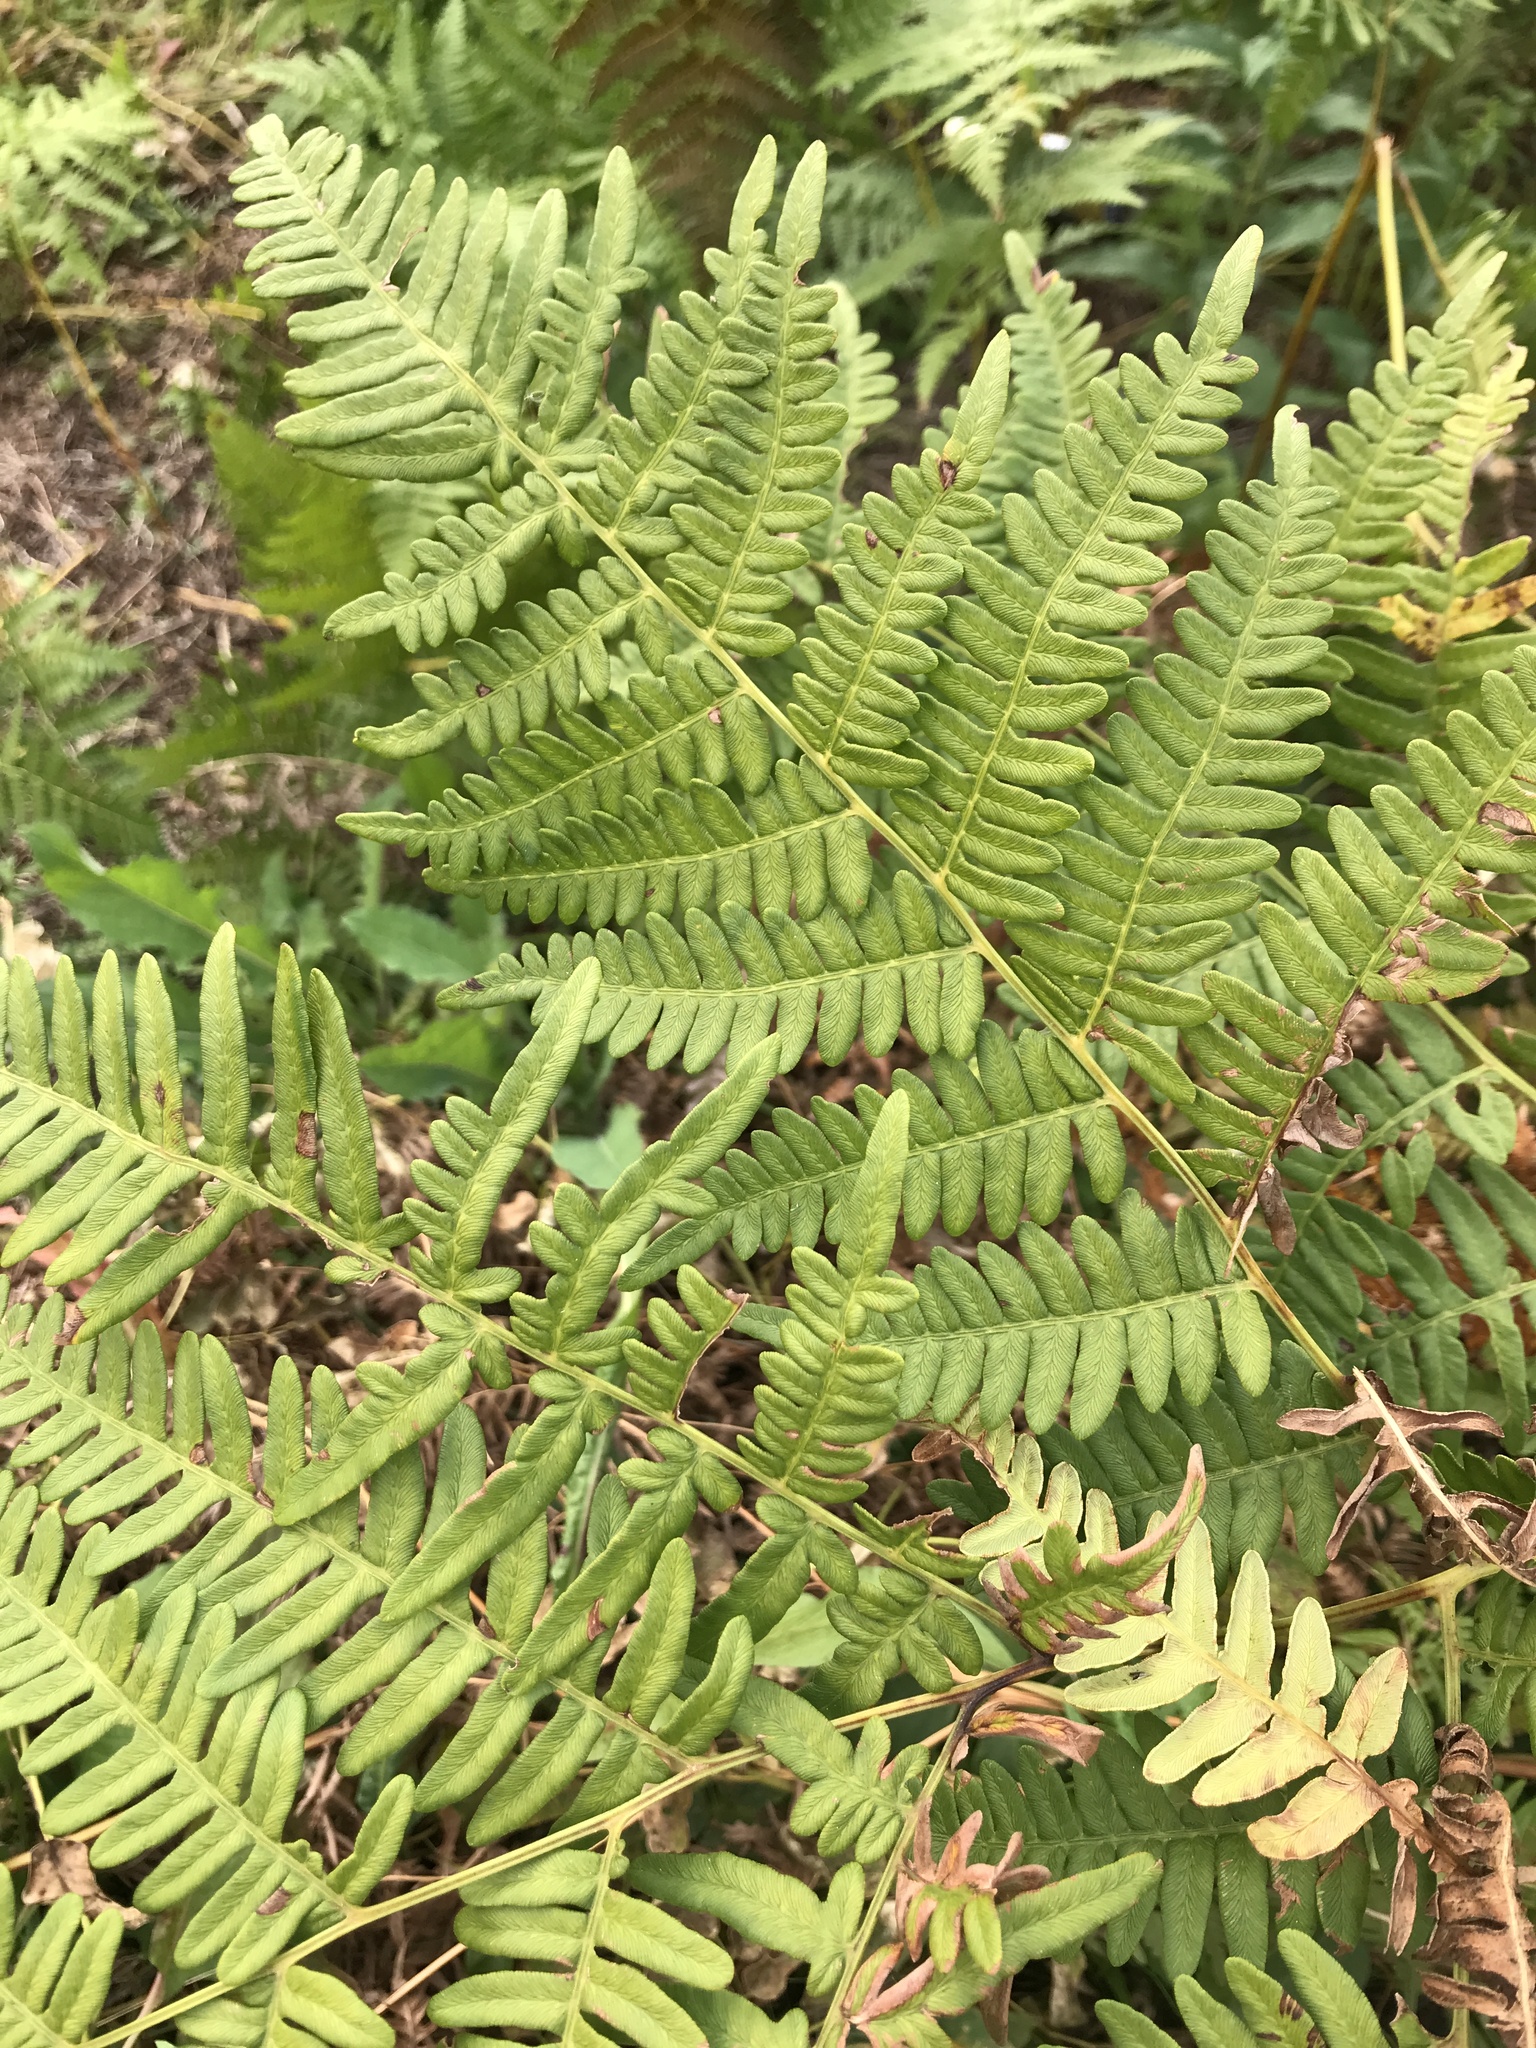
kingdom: Plantae
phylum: Tracheophyta
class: Polypodiopsida
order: Polypodiales
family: Dennstaedtiaceae
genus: Pteridium
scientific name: Pteridium aquilinum
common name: Bracken
